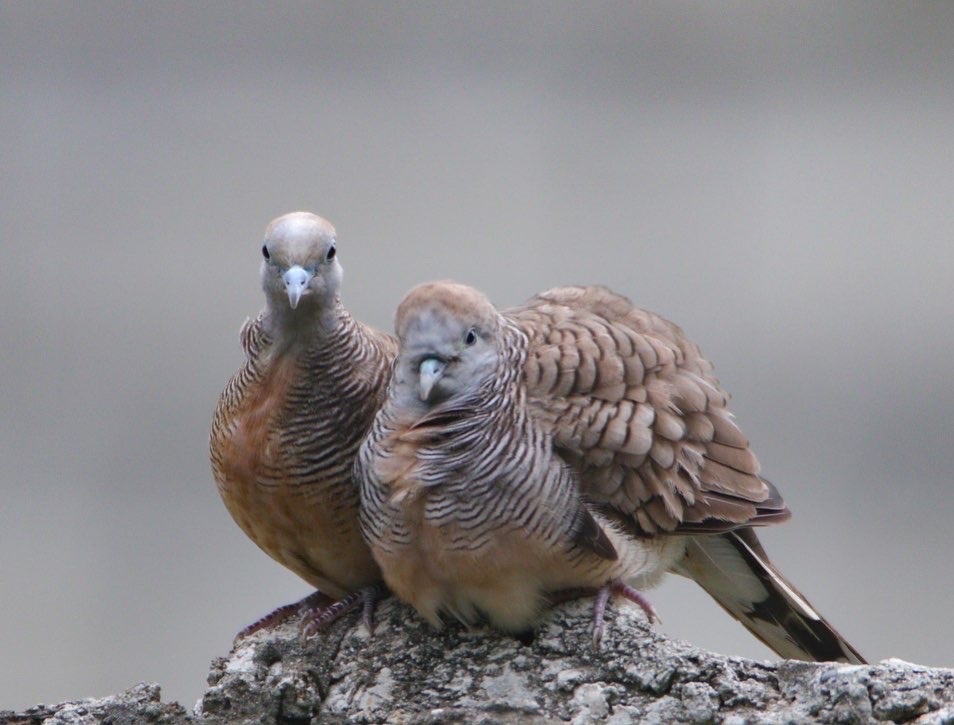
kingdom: Animalia
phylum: Chordata
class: Aves
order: Columbiformes
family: Columbidae
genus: Geopelia
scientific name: Geopelia striata
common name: Zebra dove
